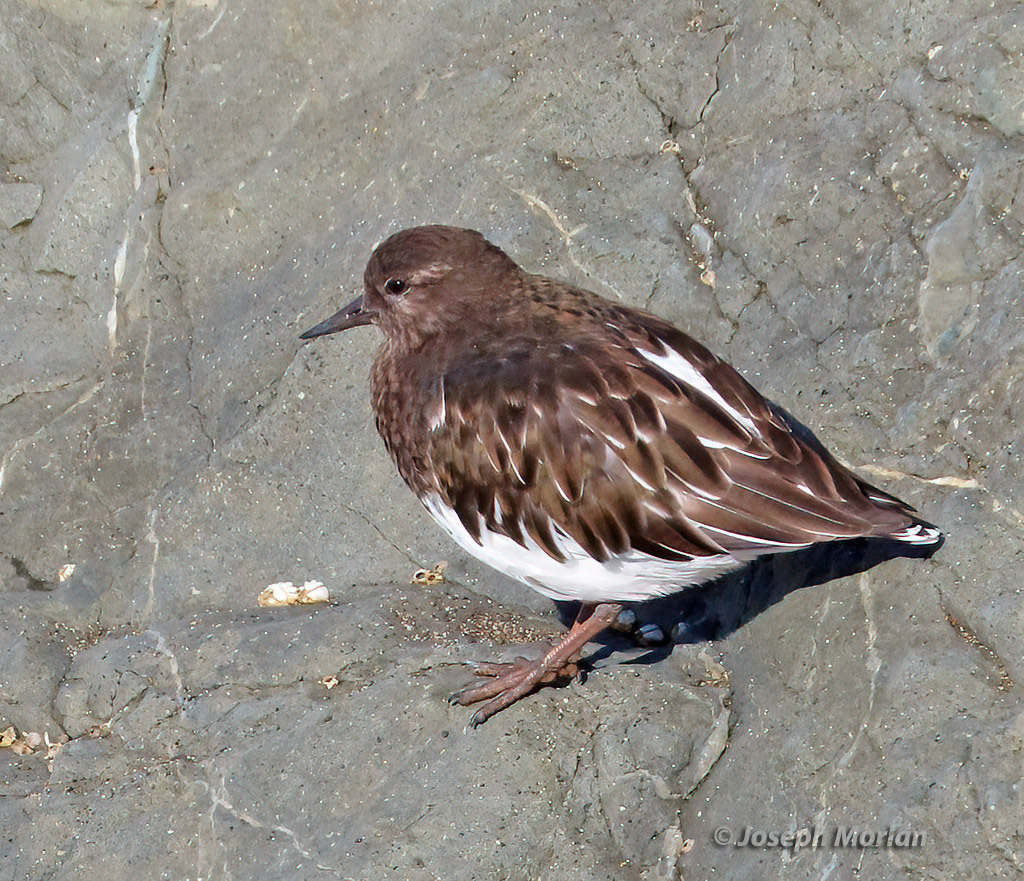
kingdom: Animalia
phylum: Chordata
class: Aves
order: Charadriiformes
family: Scolopacidae
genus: Arenaria
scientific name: Arenaria melanocephala
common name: Black turnstone
